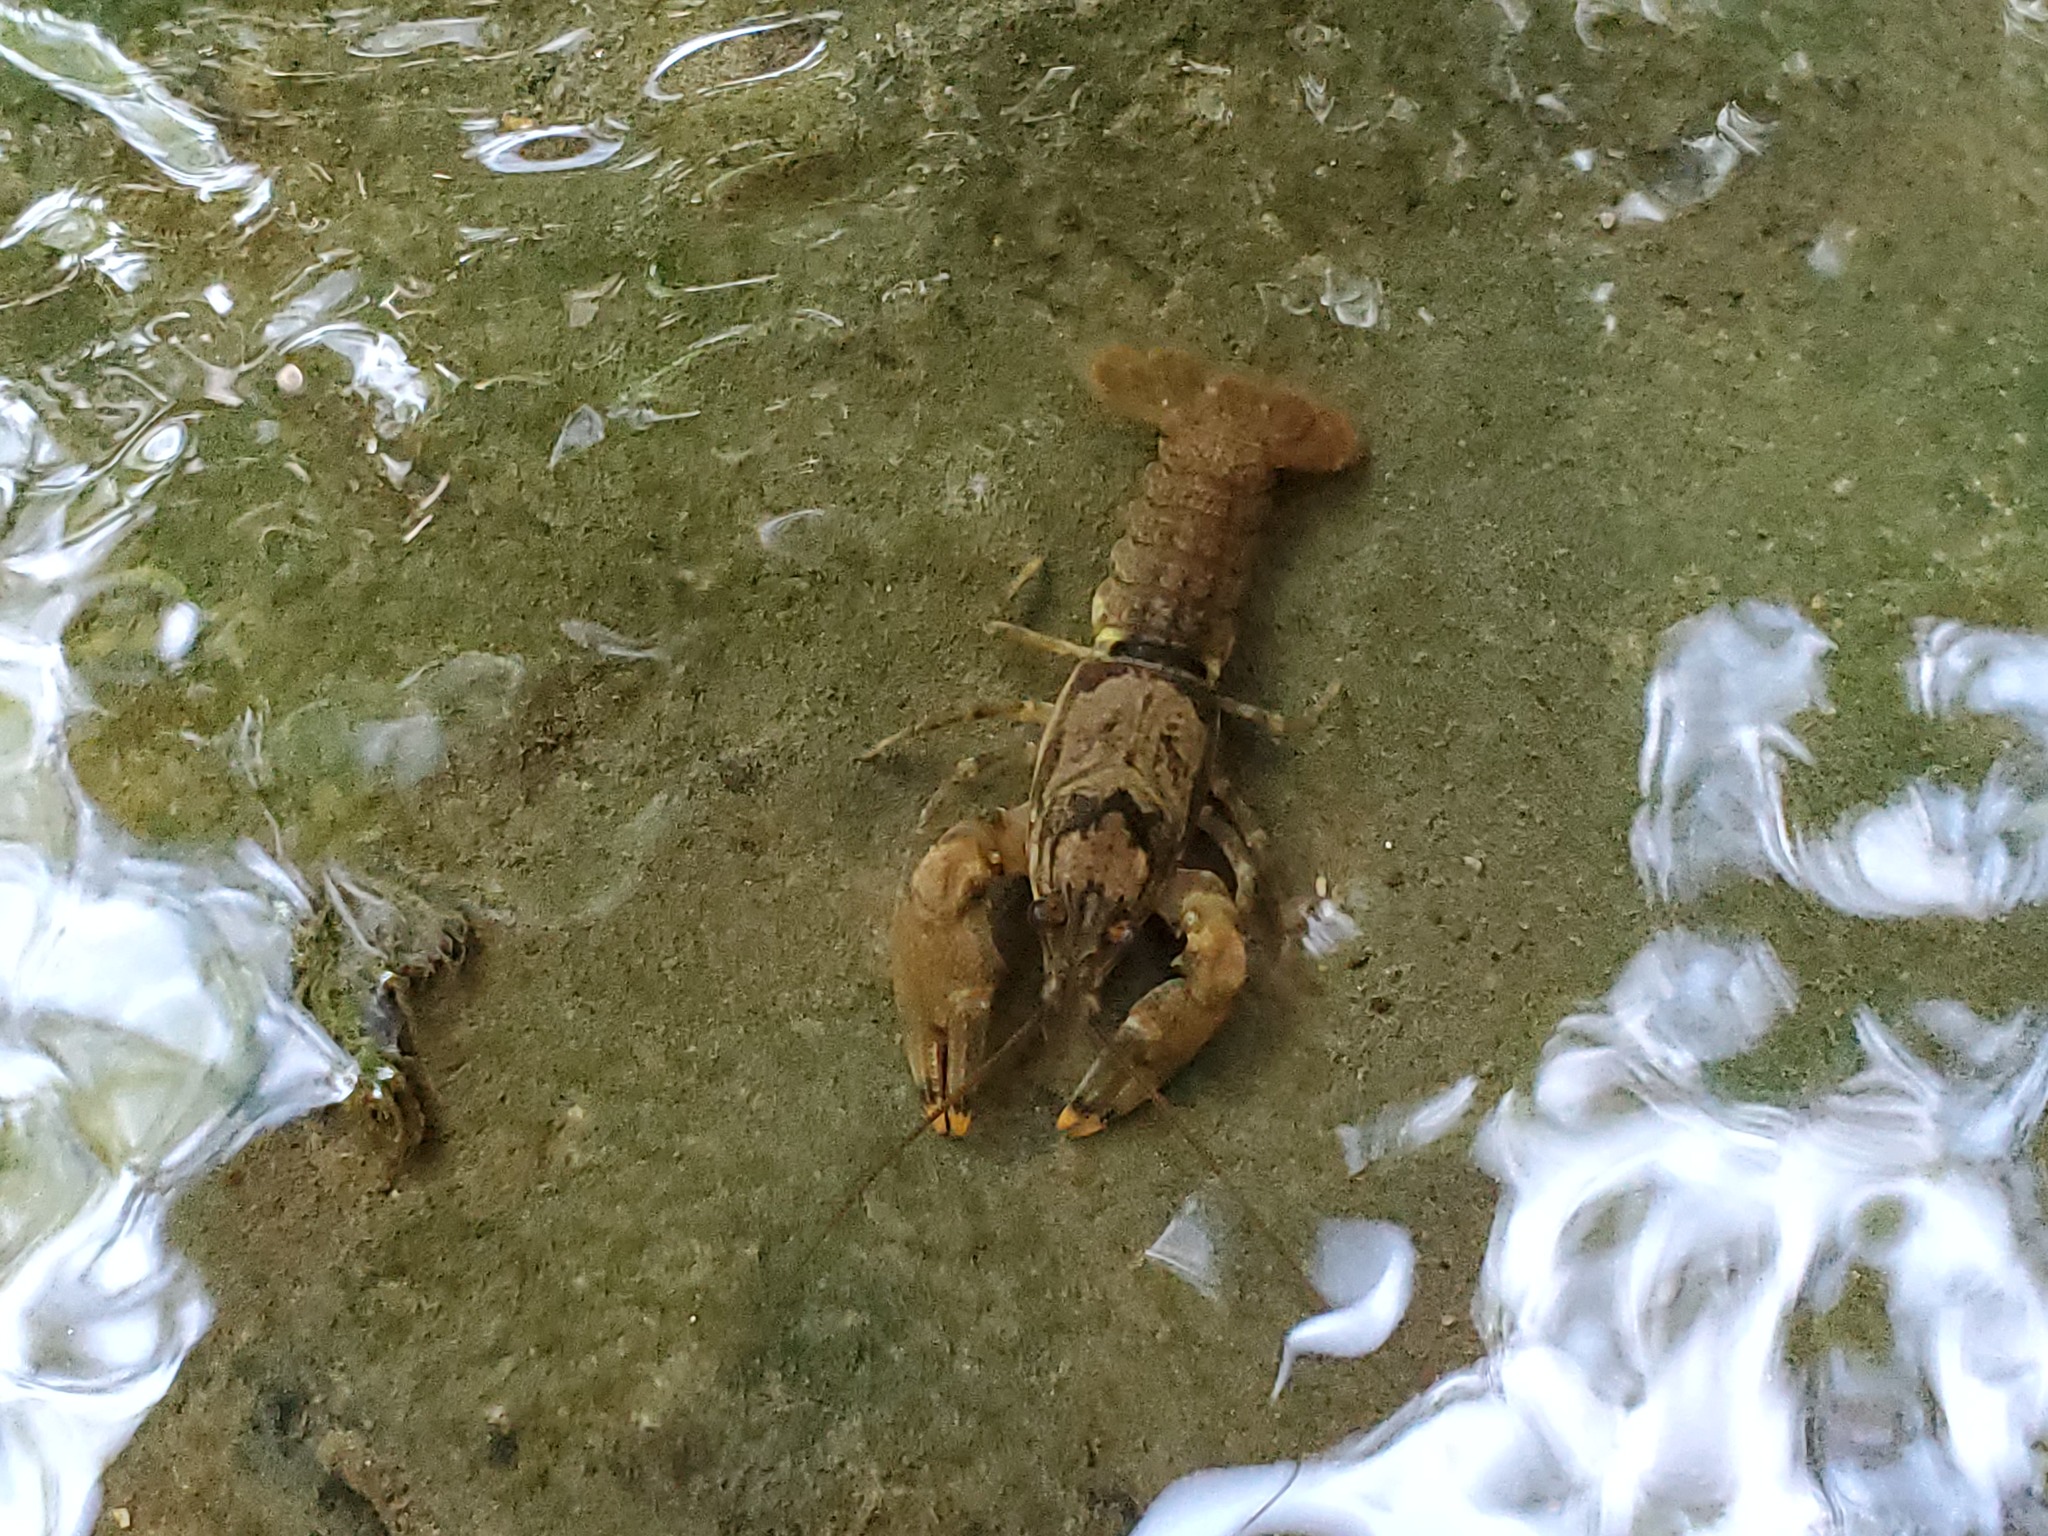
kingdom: Animalia
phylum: Arthropoda
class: Malacostraca
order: Decapoda
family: Cambaridae
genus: Faxonius
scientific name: Faxonius shoupi
